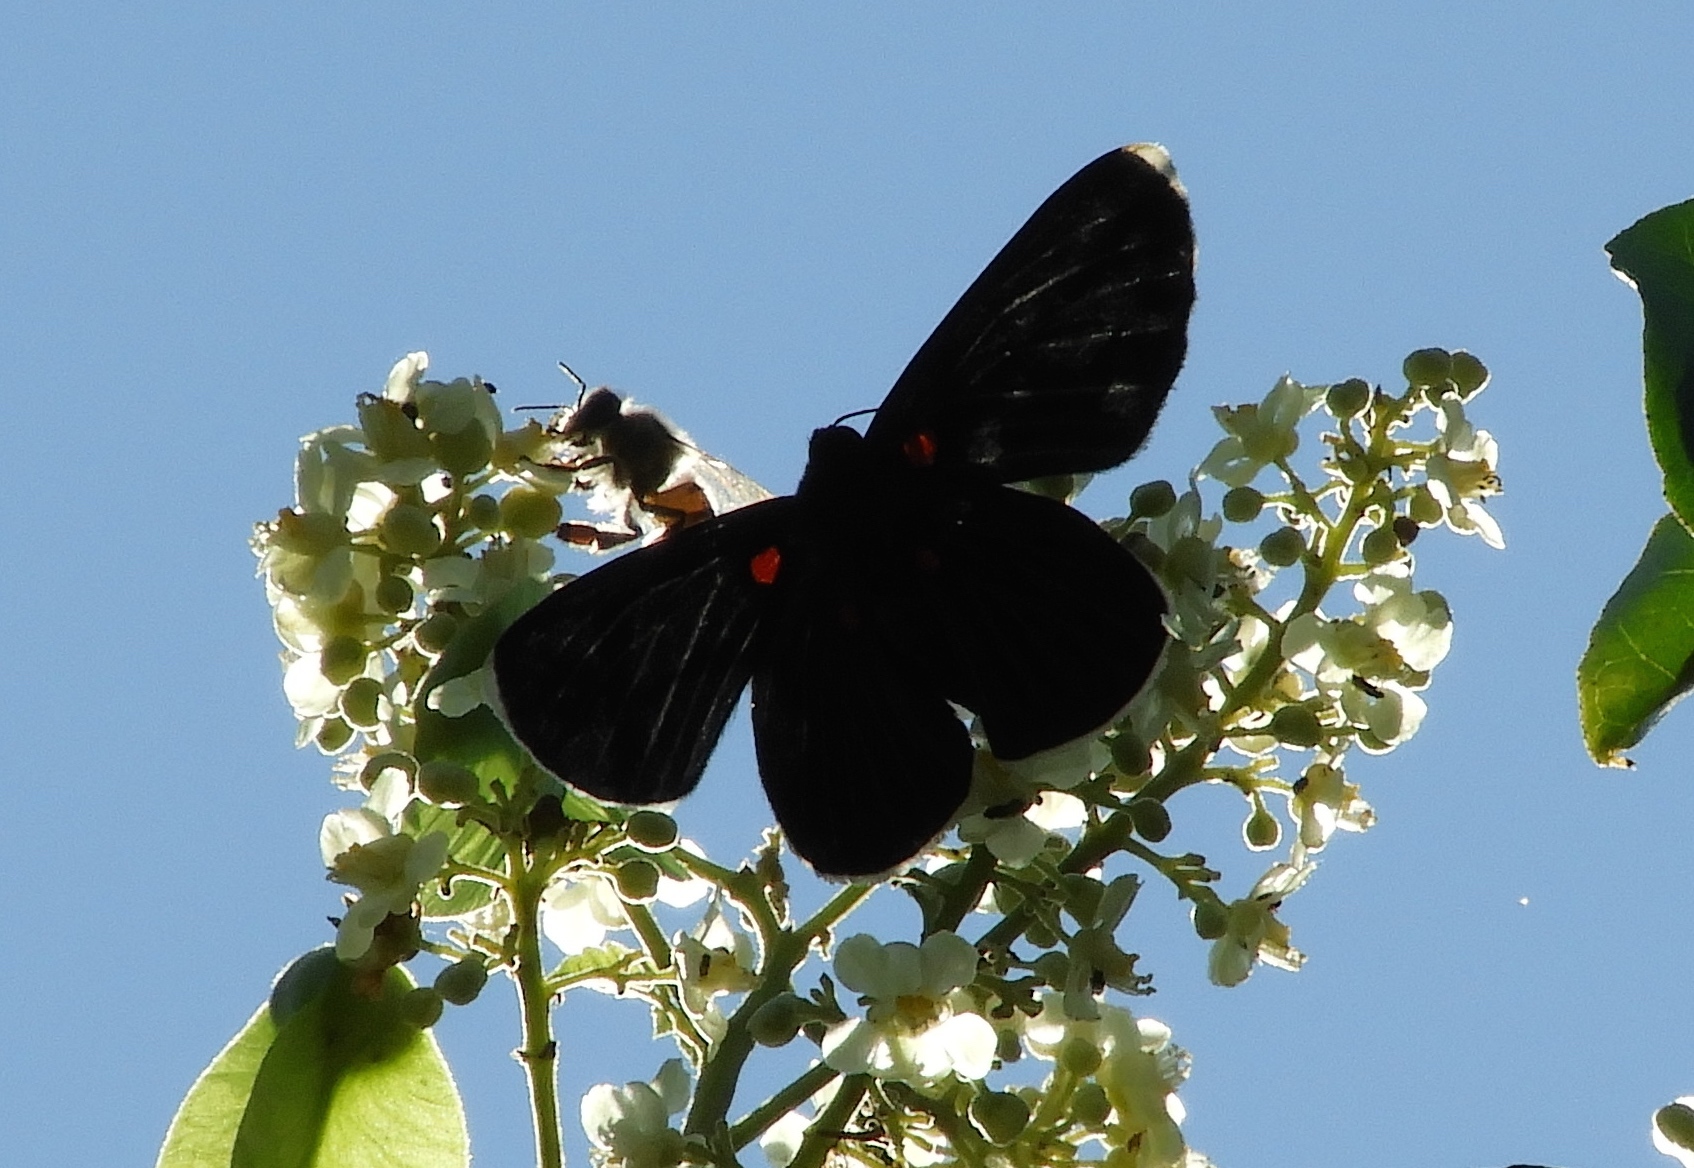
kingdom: Animalia
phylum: Arthropoda
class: Insecta
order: Lepidoptera
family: Lycaenidae
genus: Melanis
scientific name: Melanis
